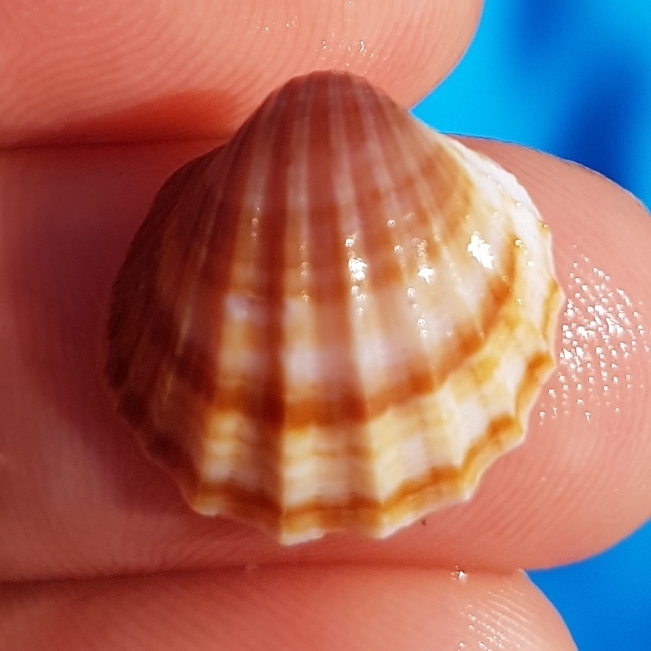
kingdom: Animalia
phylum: Mollusca
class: Bivalvia
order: Cardiida
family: Cardiidae
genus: Acanthocardia
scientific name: Acanthocardia paucicostata
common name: Poorly ribbed cockle
